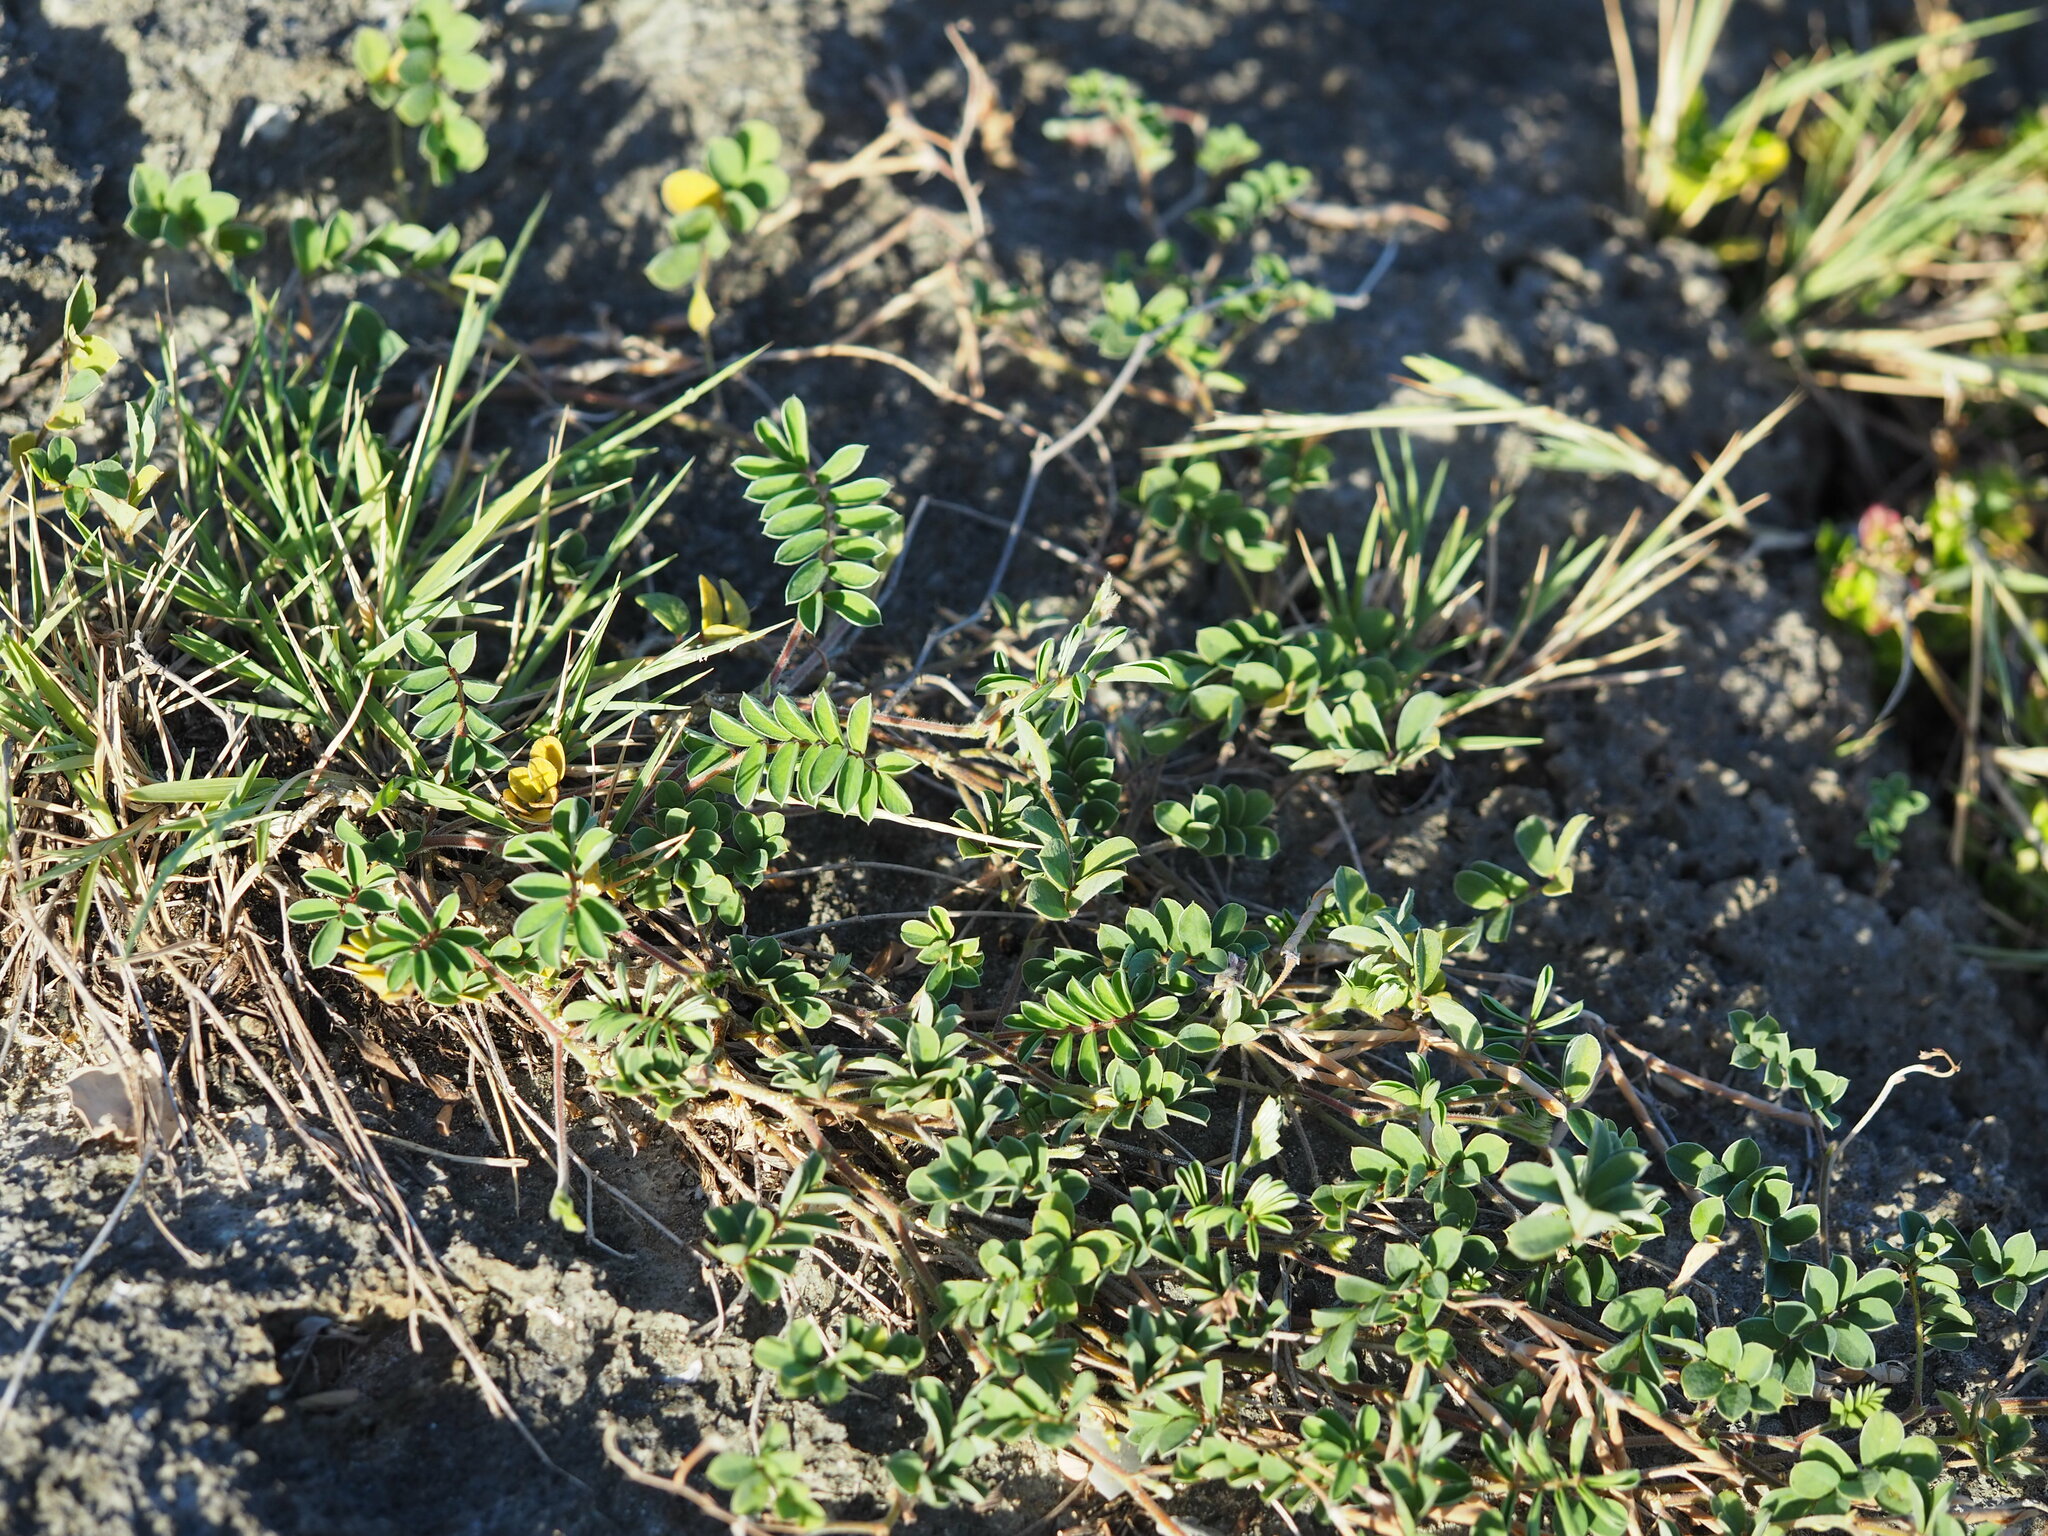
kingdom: Plantae
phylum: Tracheophyta
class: Magnoliopsida
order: Fabales
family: Fabaceae
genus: Tephrosia
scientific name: Tephrosia obovata
